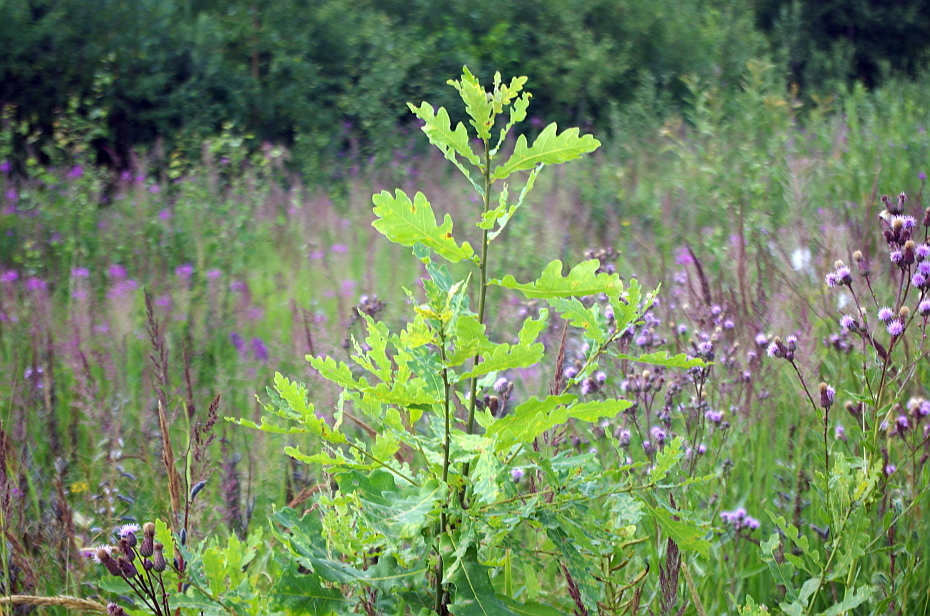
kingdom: Plantae
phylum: Tracheophyta
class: Magnoliopsida
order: Fagales
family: Fagaceae
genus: Quercus
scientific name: Quercus robur
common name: Pedunculate oak
